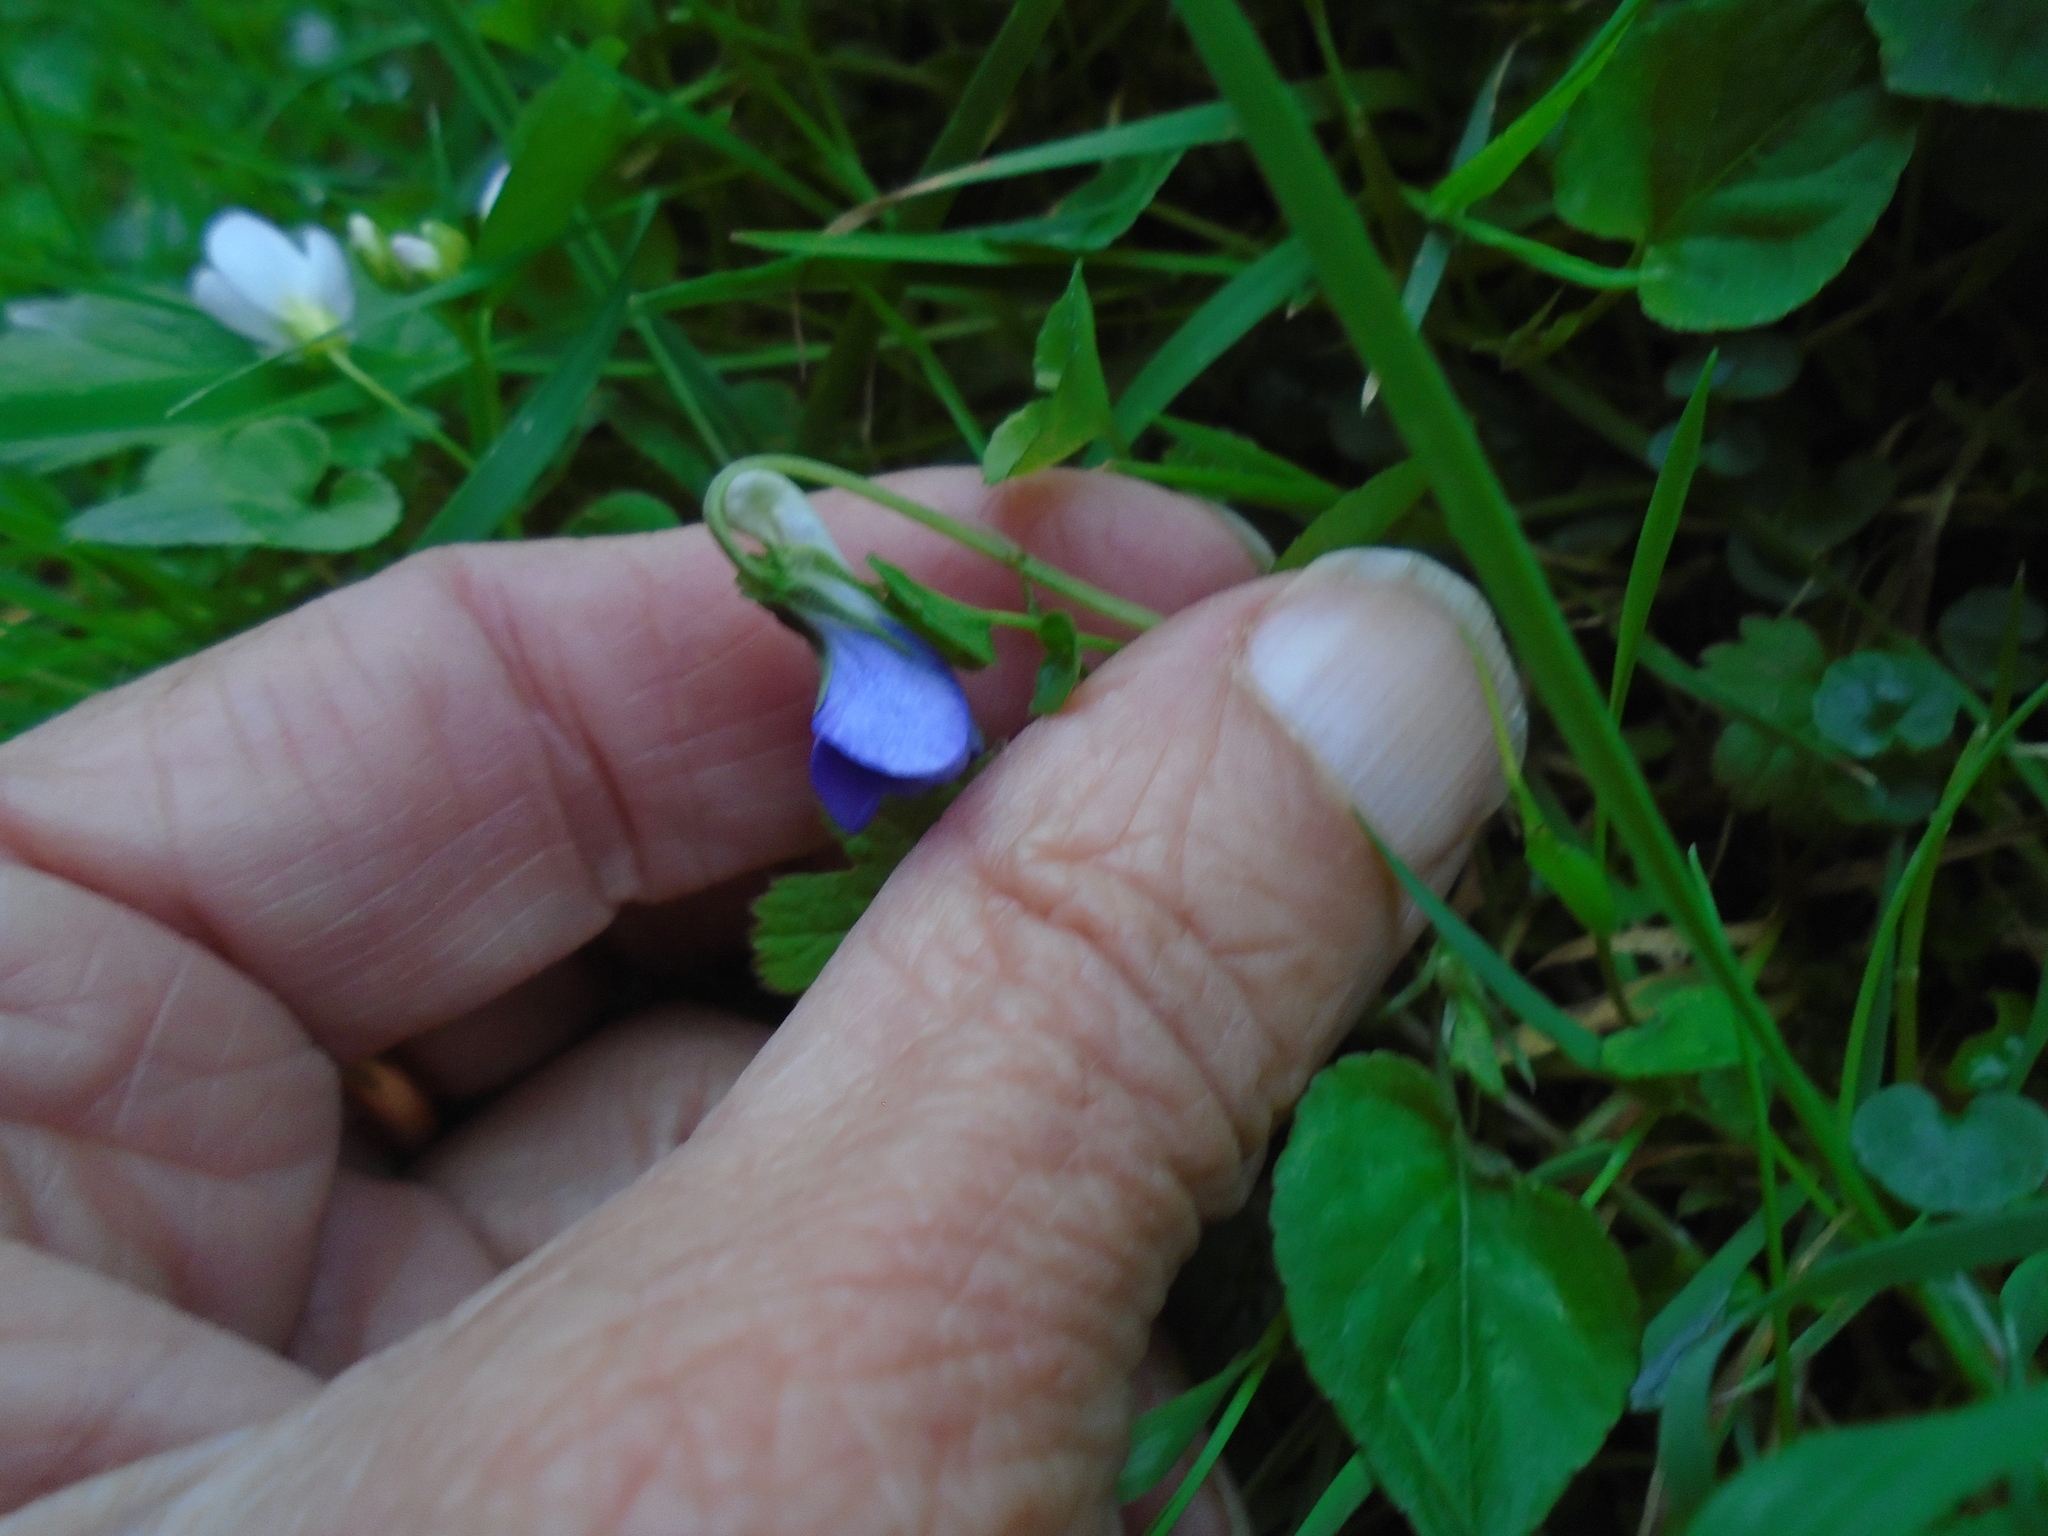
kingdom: Plantae
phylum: Tracheophyta
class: Magnoliopsida
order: Malpighiales
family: Violaceae
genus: Viola
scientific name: Viola riviniana
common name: Common dog-violet
